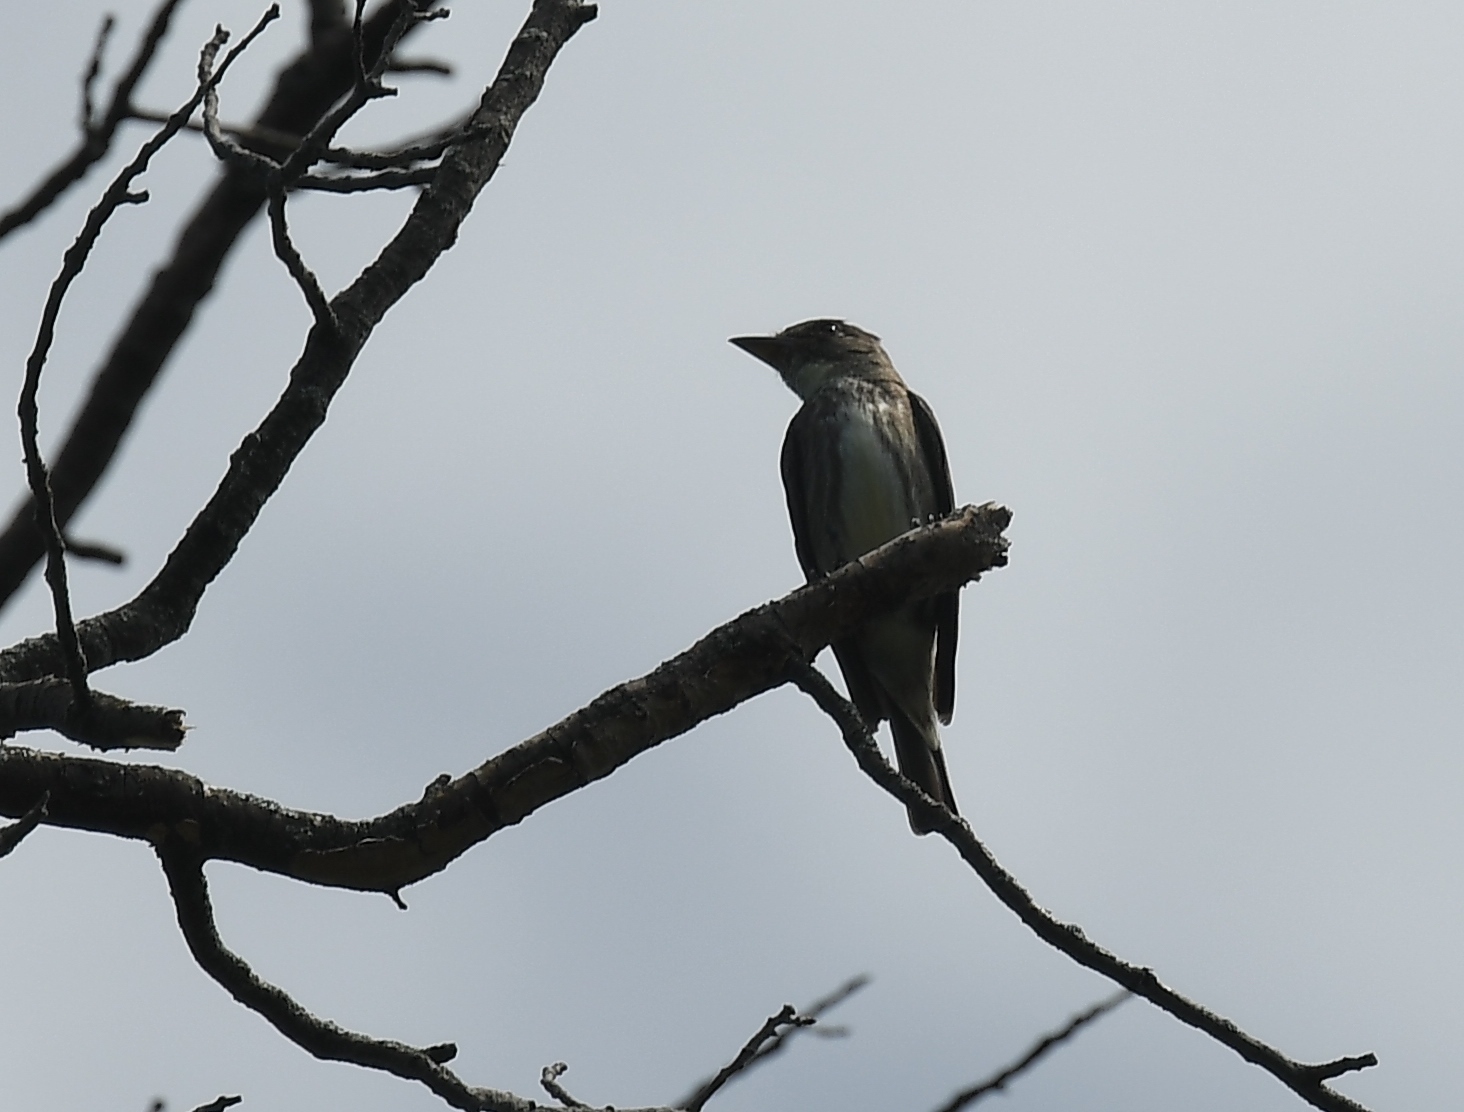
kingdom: Animalia
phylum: Chordata
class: Aves
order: Passeriformes
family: Tyrannidae
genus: Contopus
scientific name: Contopus cooperi
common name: Olive-sided flycatcher
